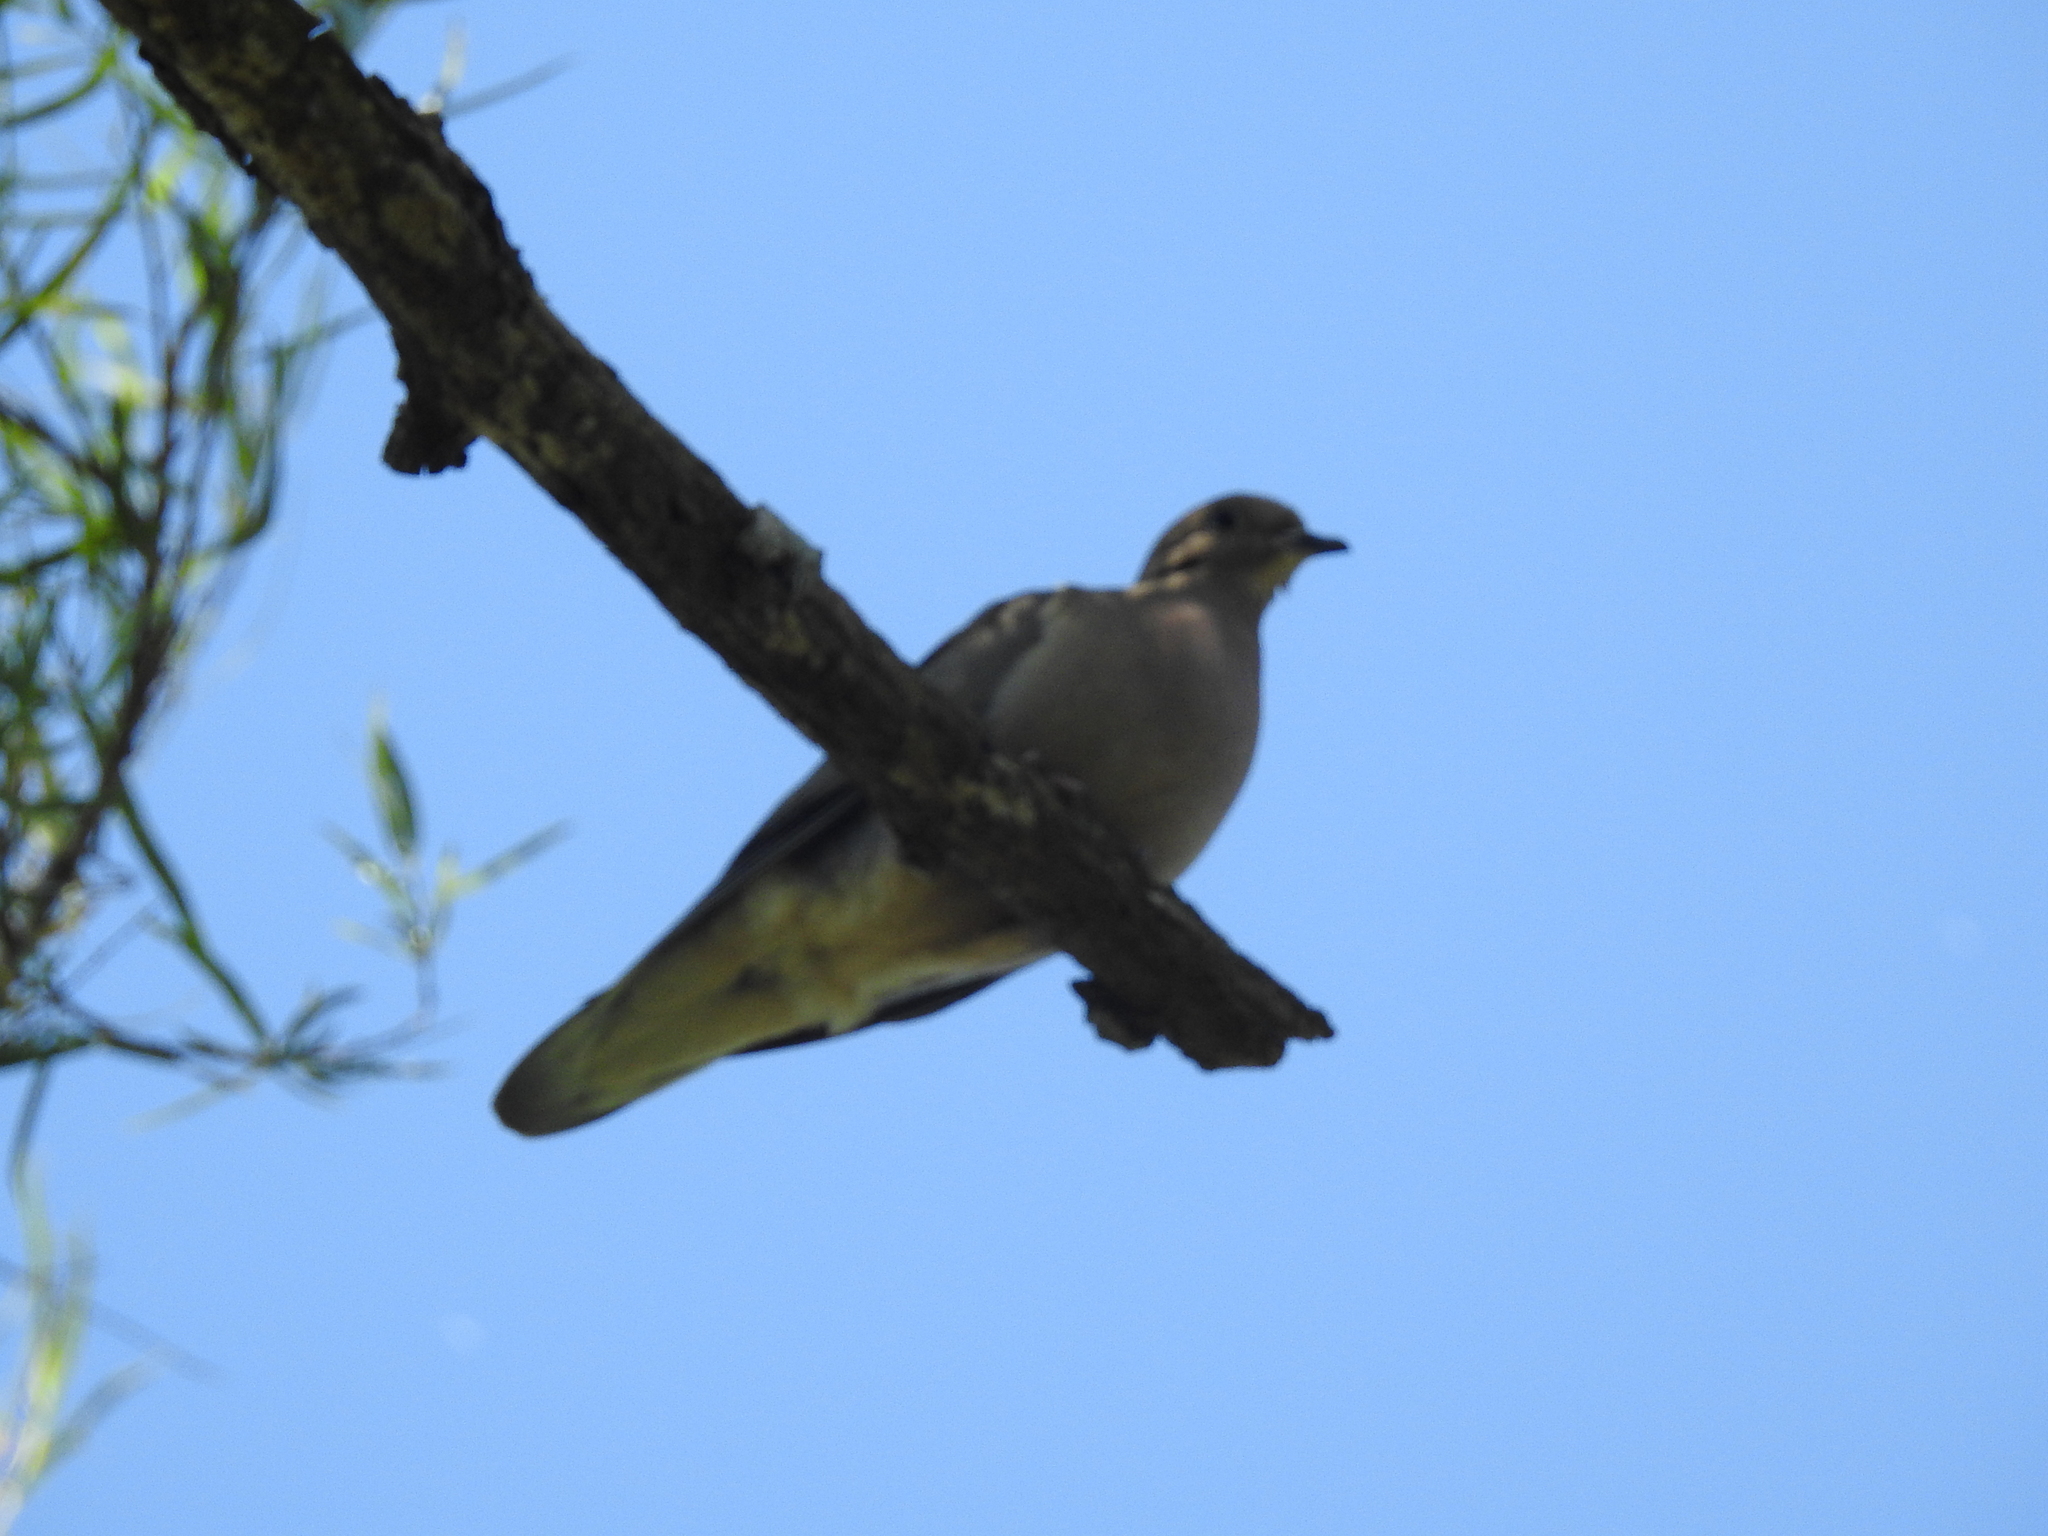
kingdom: Animalia
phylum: Chordata
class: Aves
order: Columbiformes
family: Columbidae
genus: Zenaida
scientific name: Zenaida auriculata
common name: Eared dove
